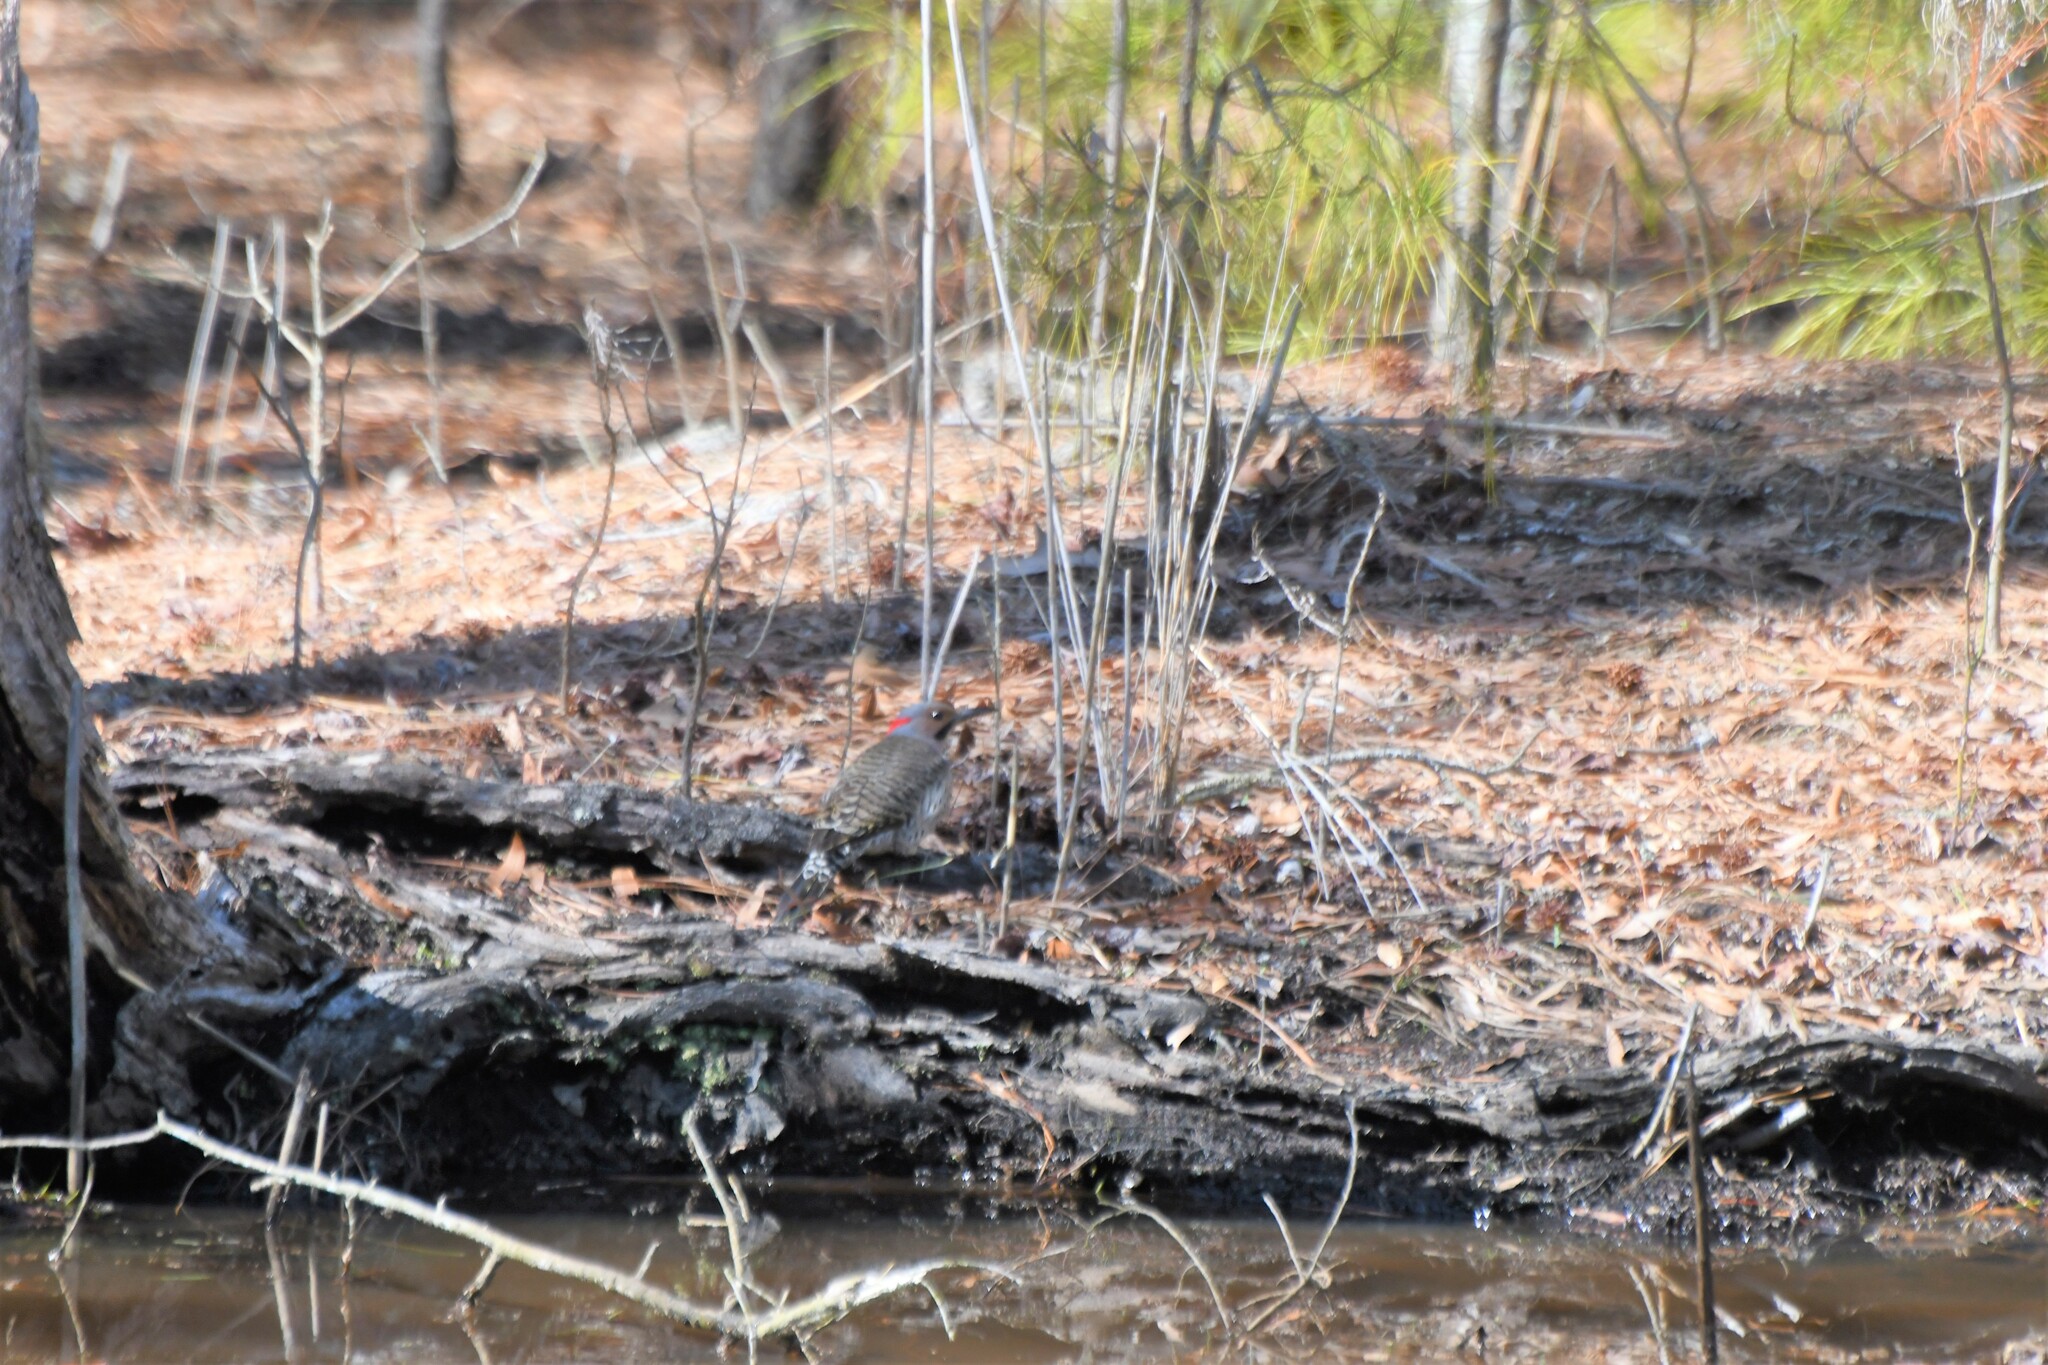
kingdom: Animalia
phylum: Chordata
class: Aves
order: Piciformes
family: Picidae
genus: Colaptes
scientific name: Colaptes auratus
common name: Northern flicker
